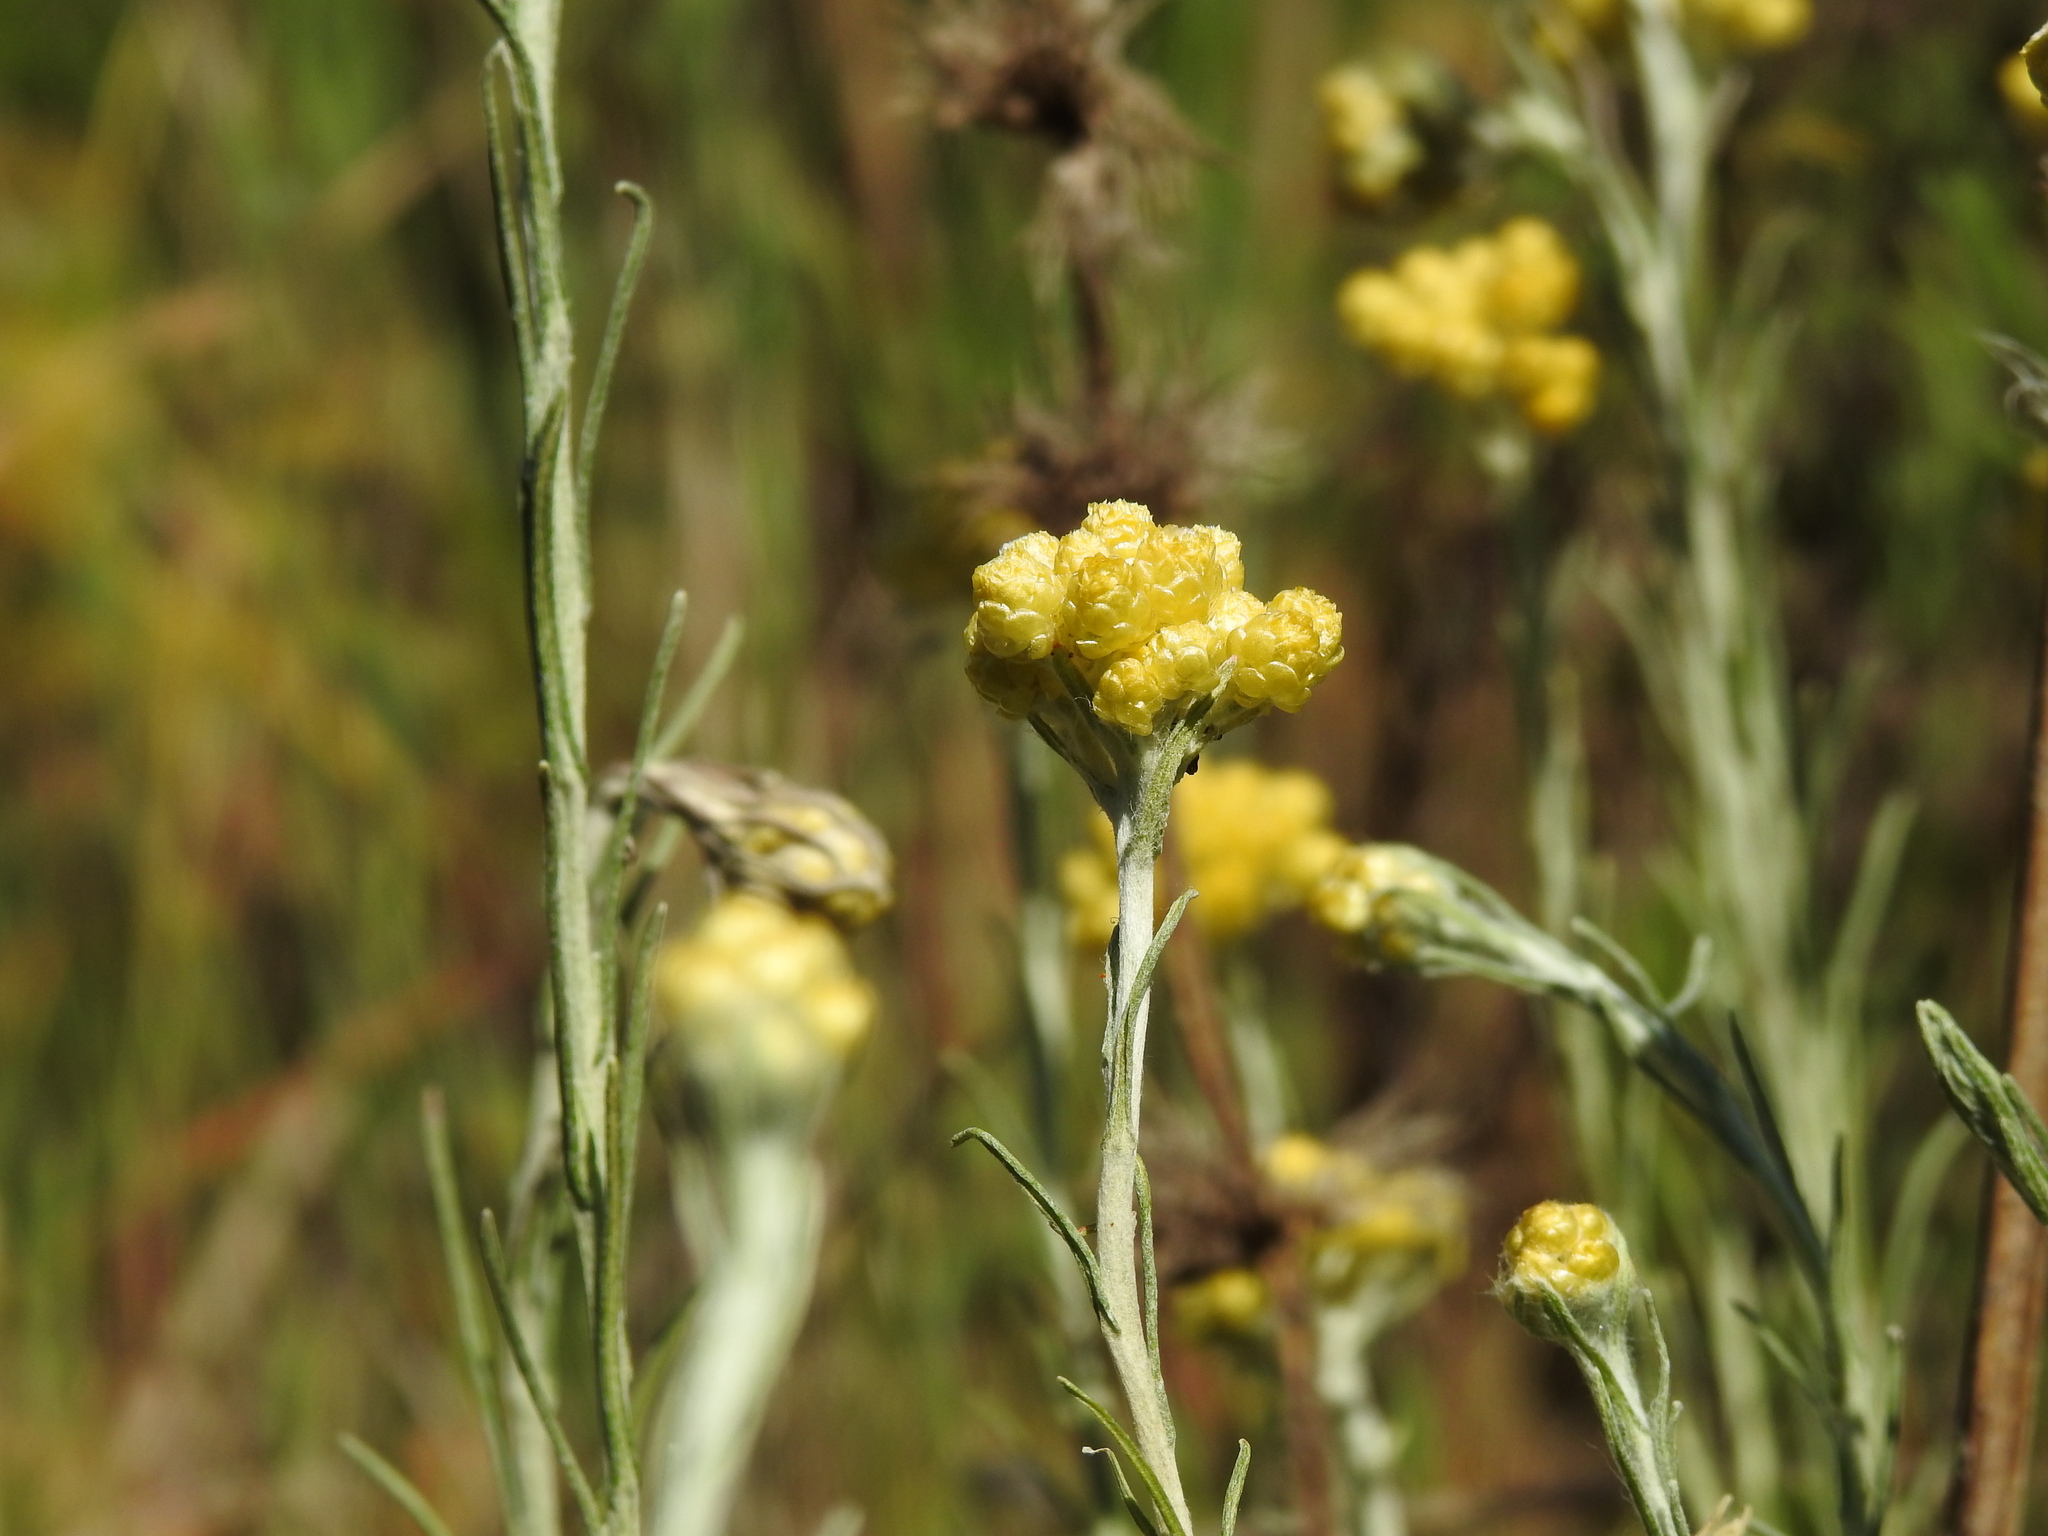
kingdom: Plantae
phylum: Tracheophyta
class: Magnoliopsida
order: Asterales
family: Asteraceae
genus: Helichrysum
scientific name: Helichrysum stoechas
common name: Goldilocks
